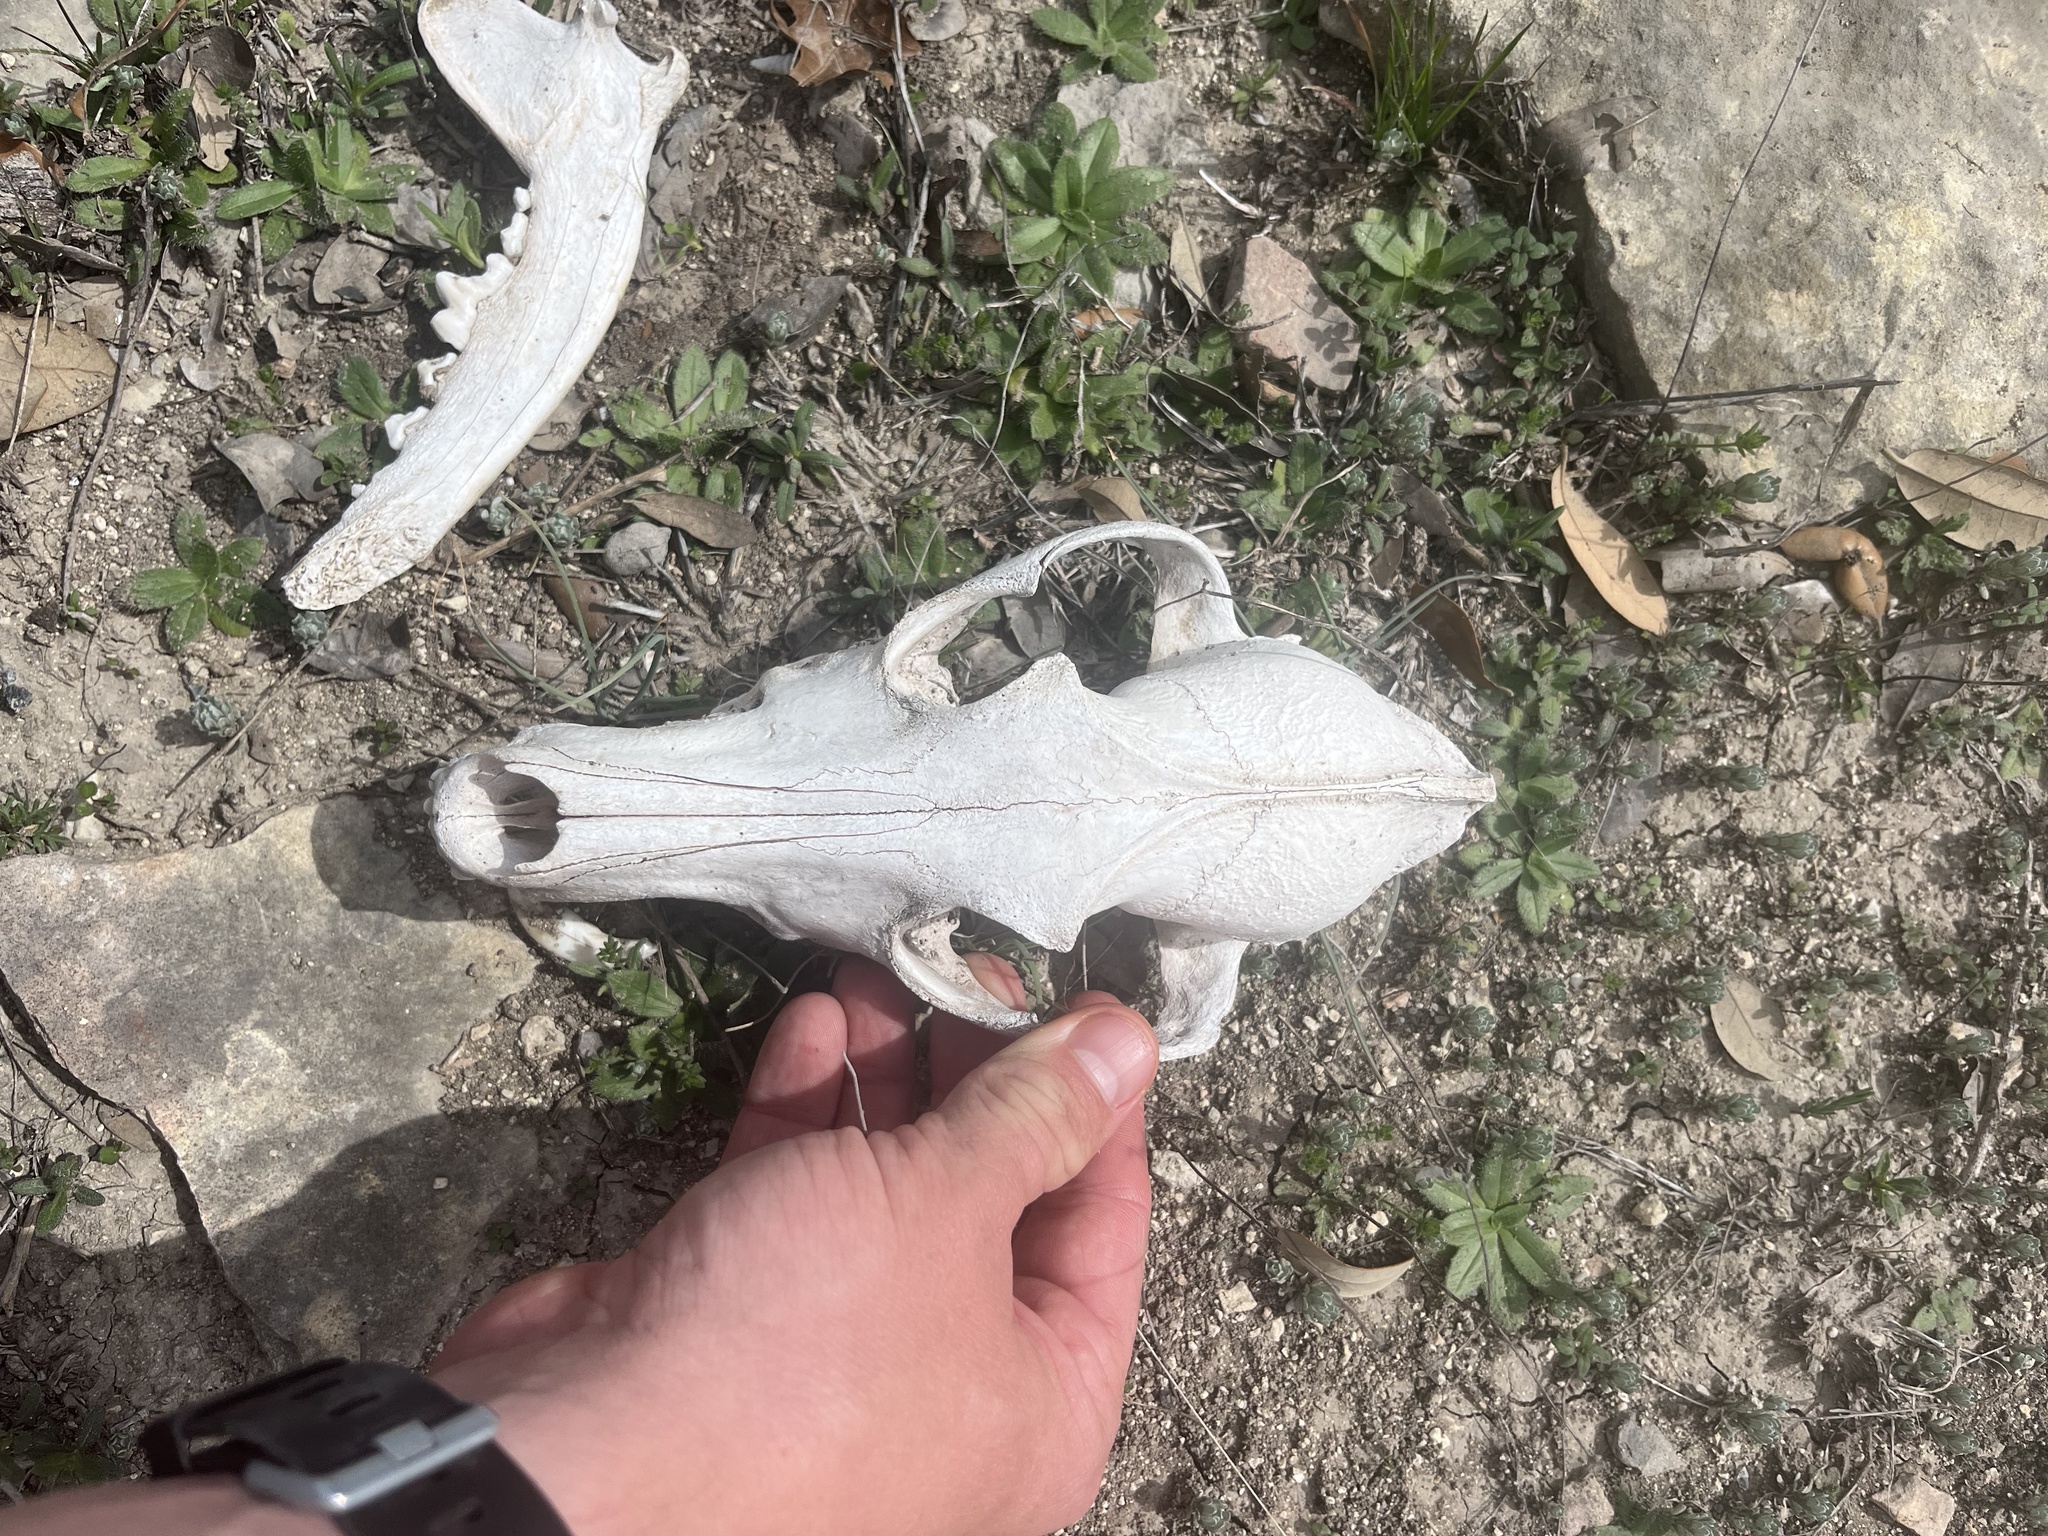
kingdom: Animalia
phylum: Chordata
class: Mammalia
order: Carnivora
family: Canidae
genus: Canis
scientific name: Canis latrans
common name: Coyote
